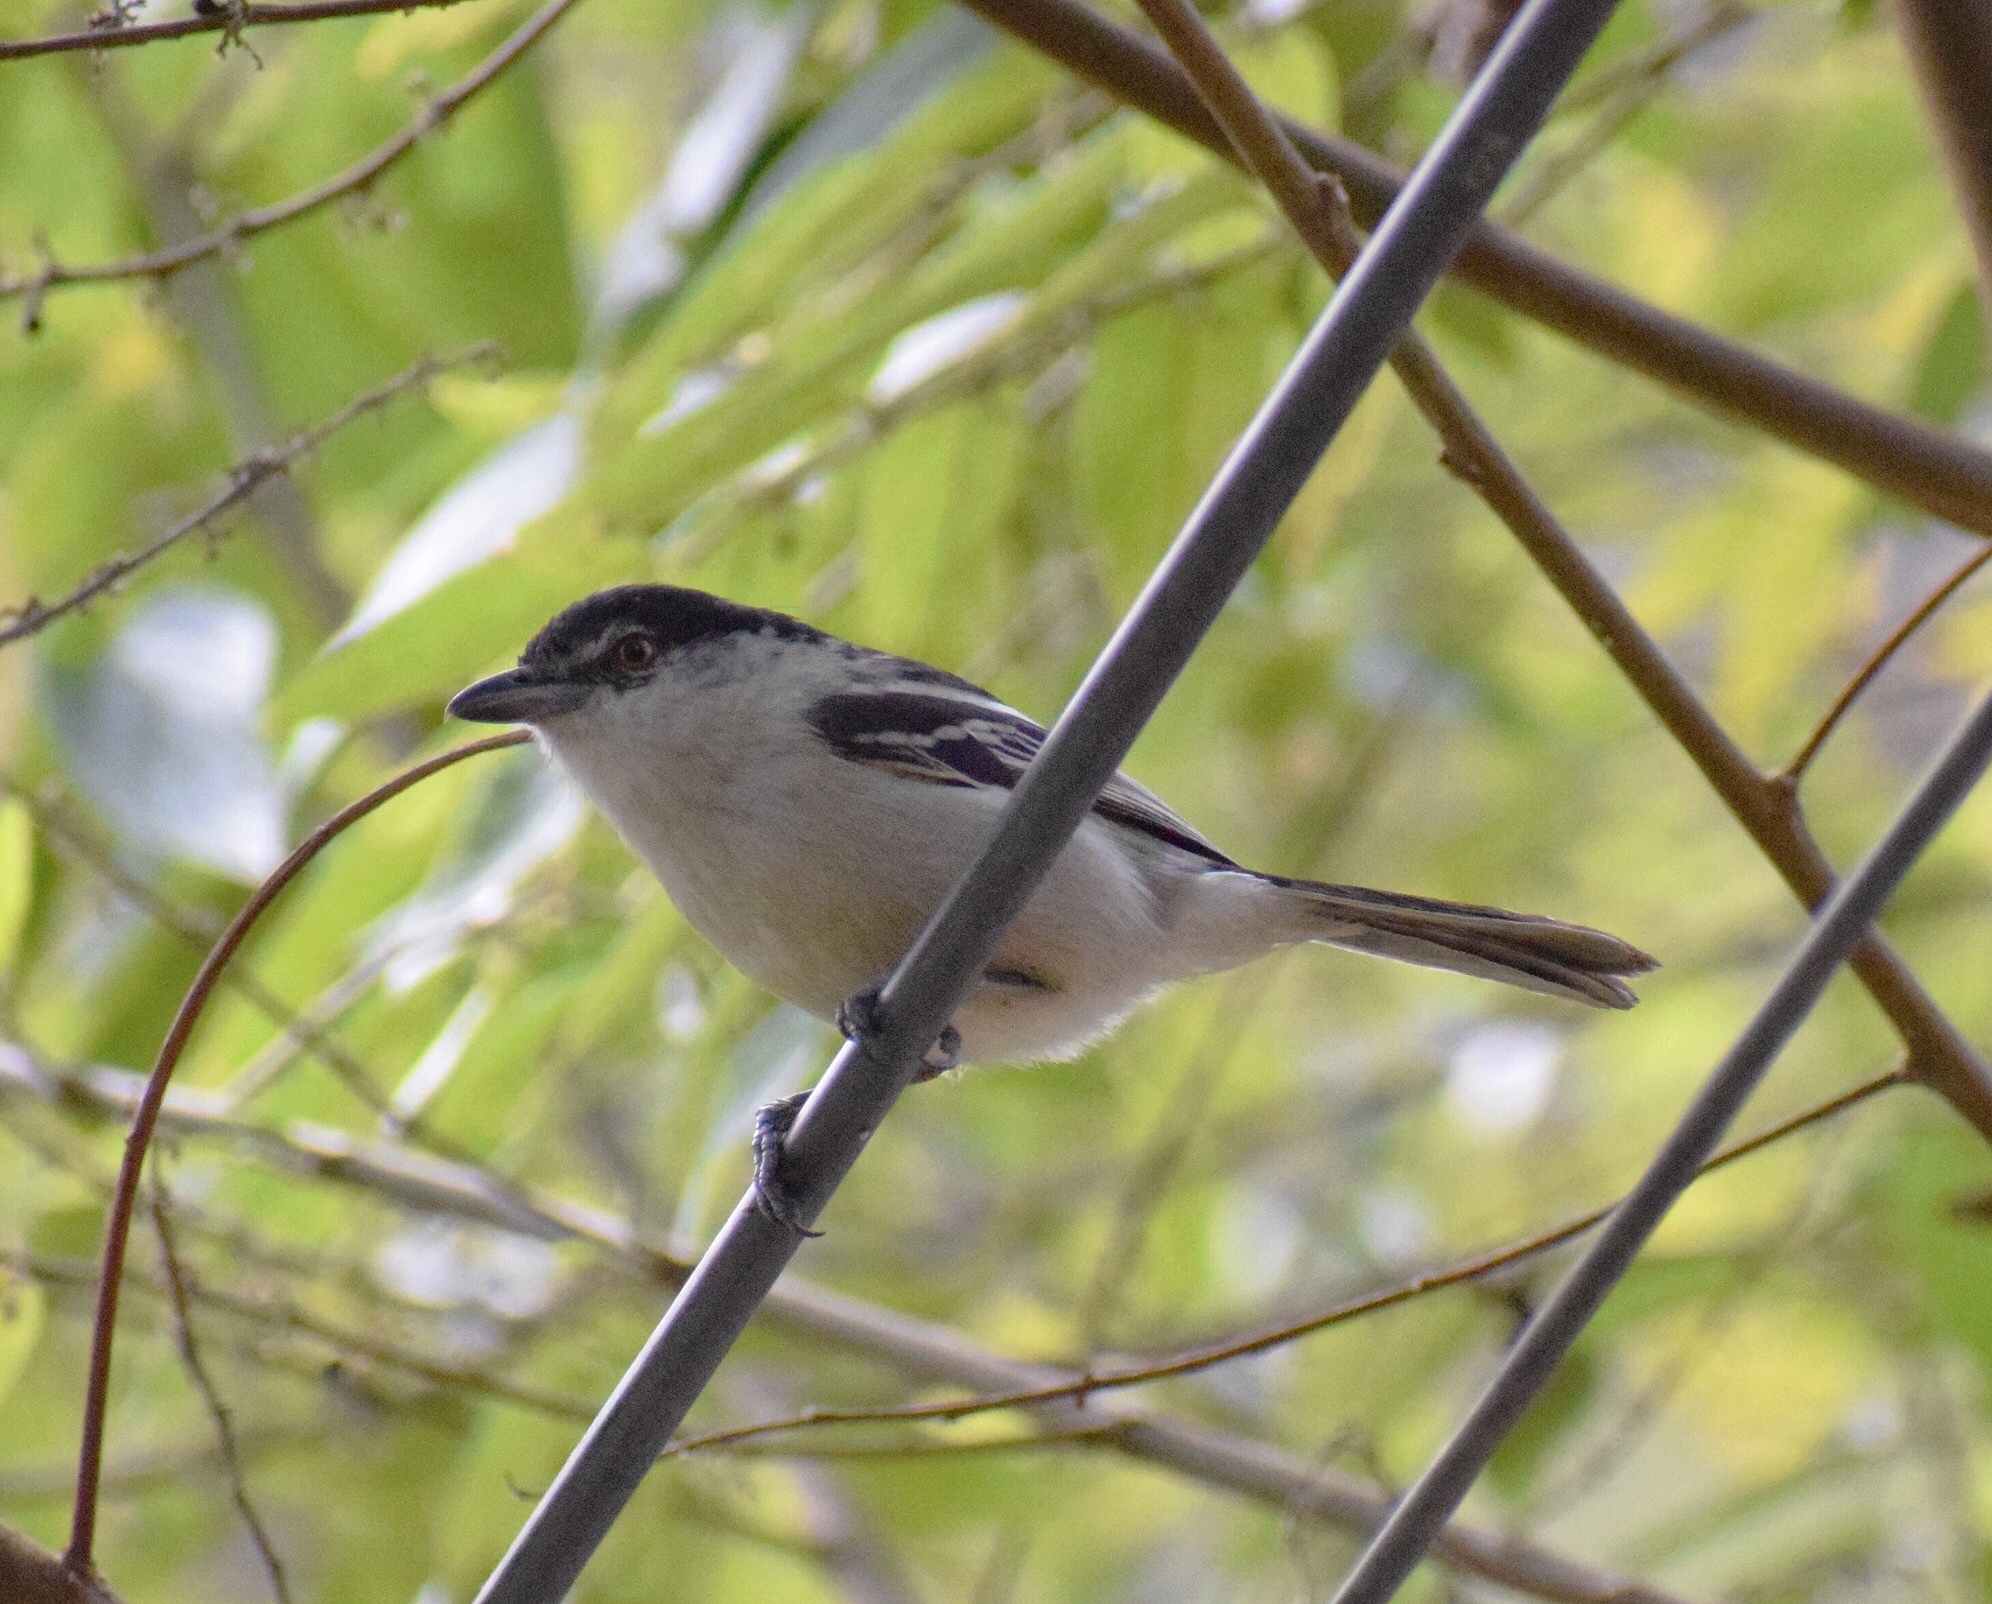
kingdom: Animalia
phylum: Chordata
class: Aves
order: Passeriformes
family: Malaconotidae
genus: Dryoscopus
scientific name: Dryoscopus cubla
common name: Black-backed puffback
